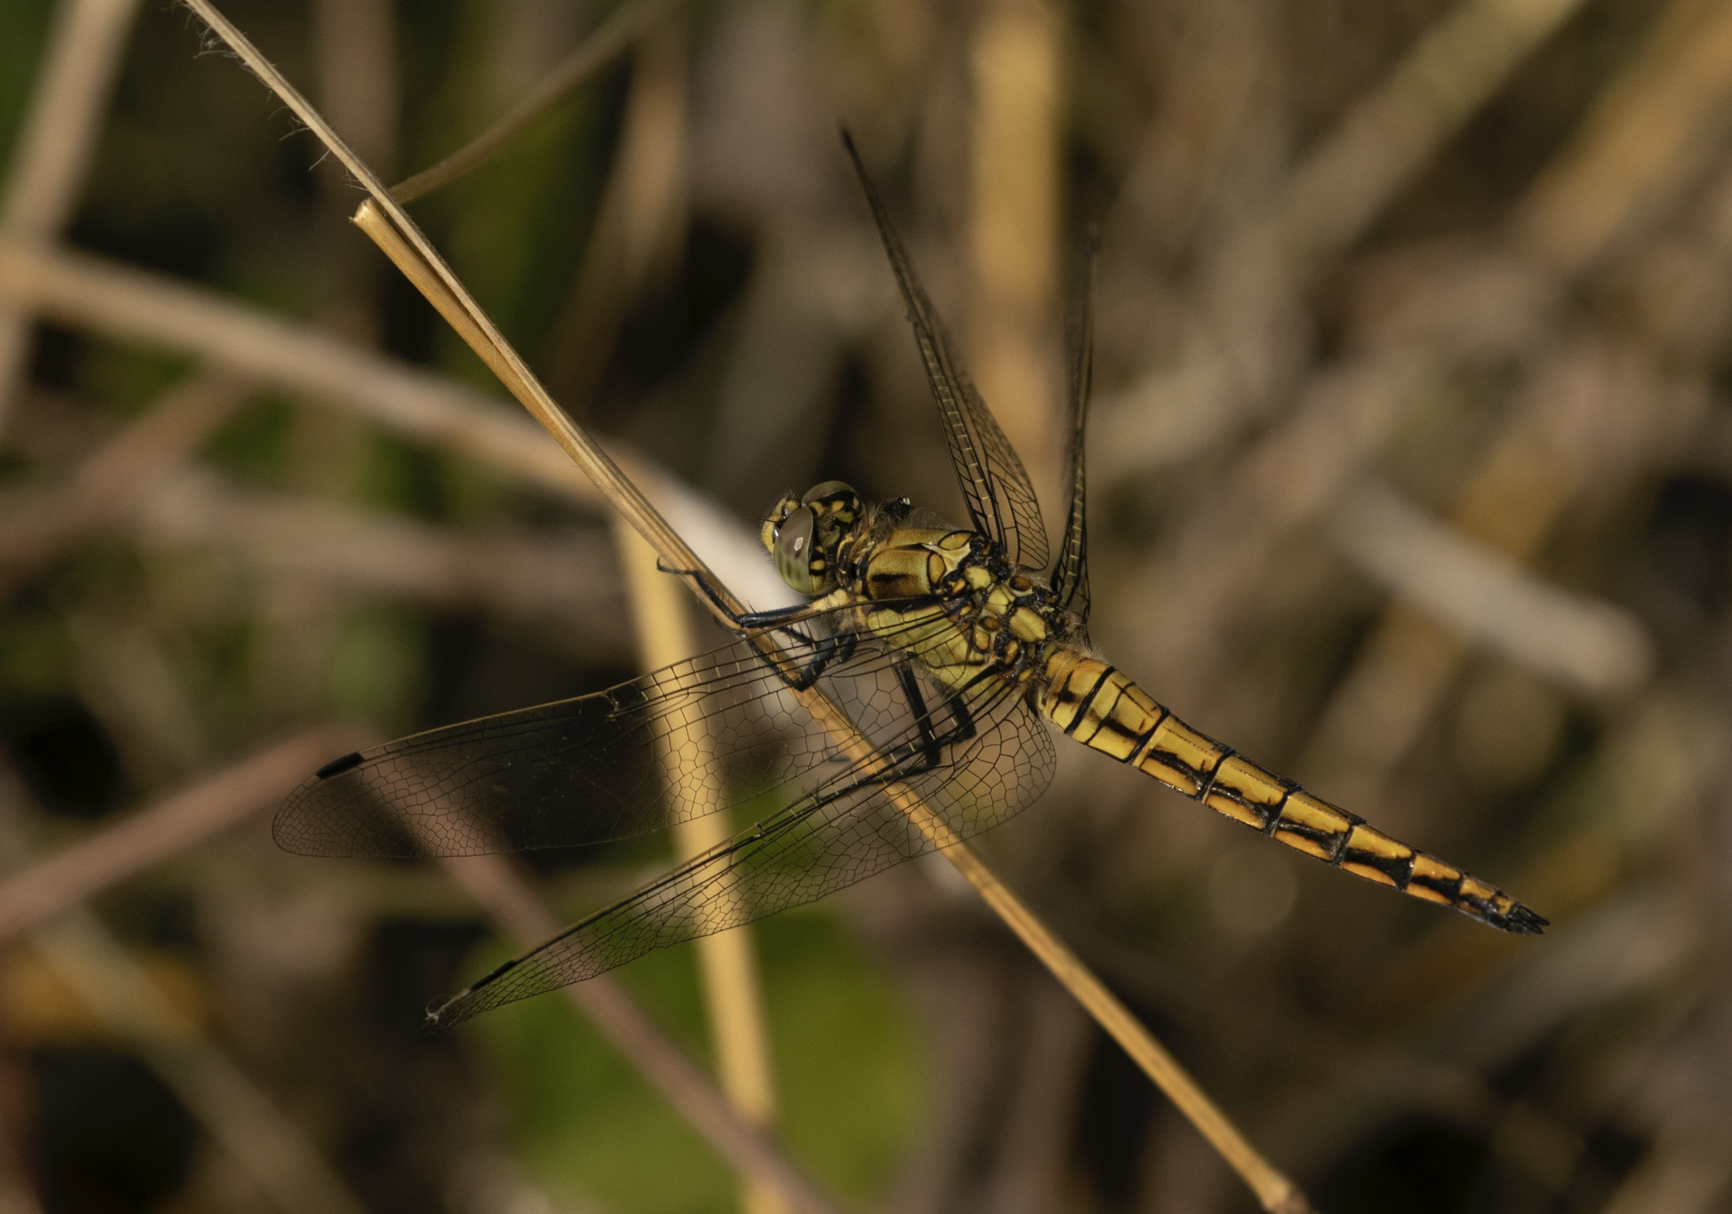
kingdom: Animalia
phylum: Arthropoda
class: Insecta
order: Odonata
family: Libellulidae
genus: Orthetrum
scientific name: Orthetrum cancellatum
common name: Black-tailed skimmer
